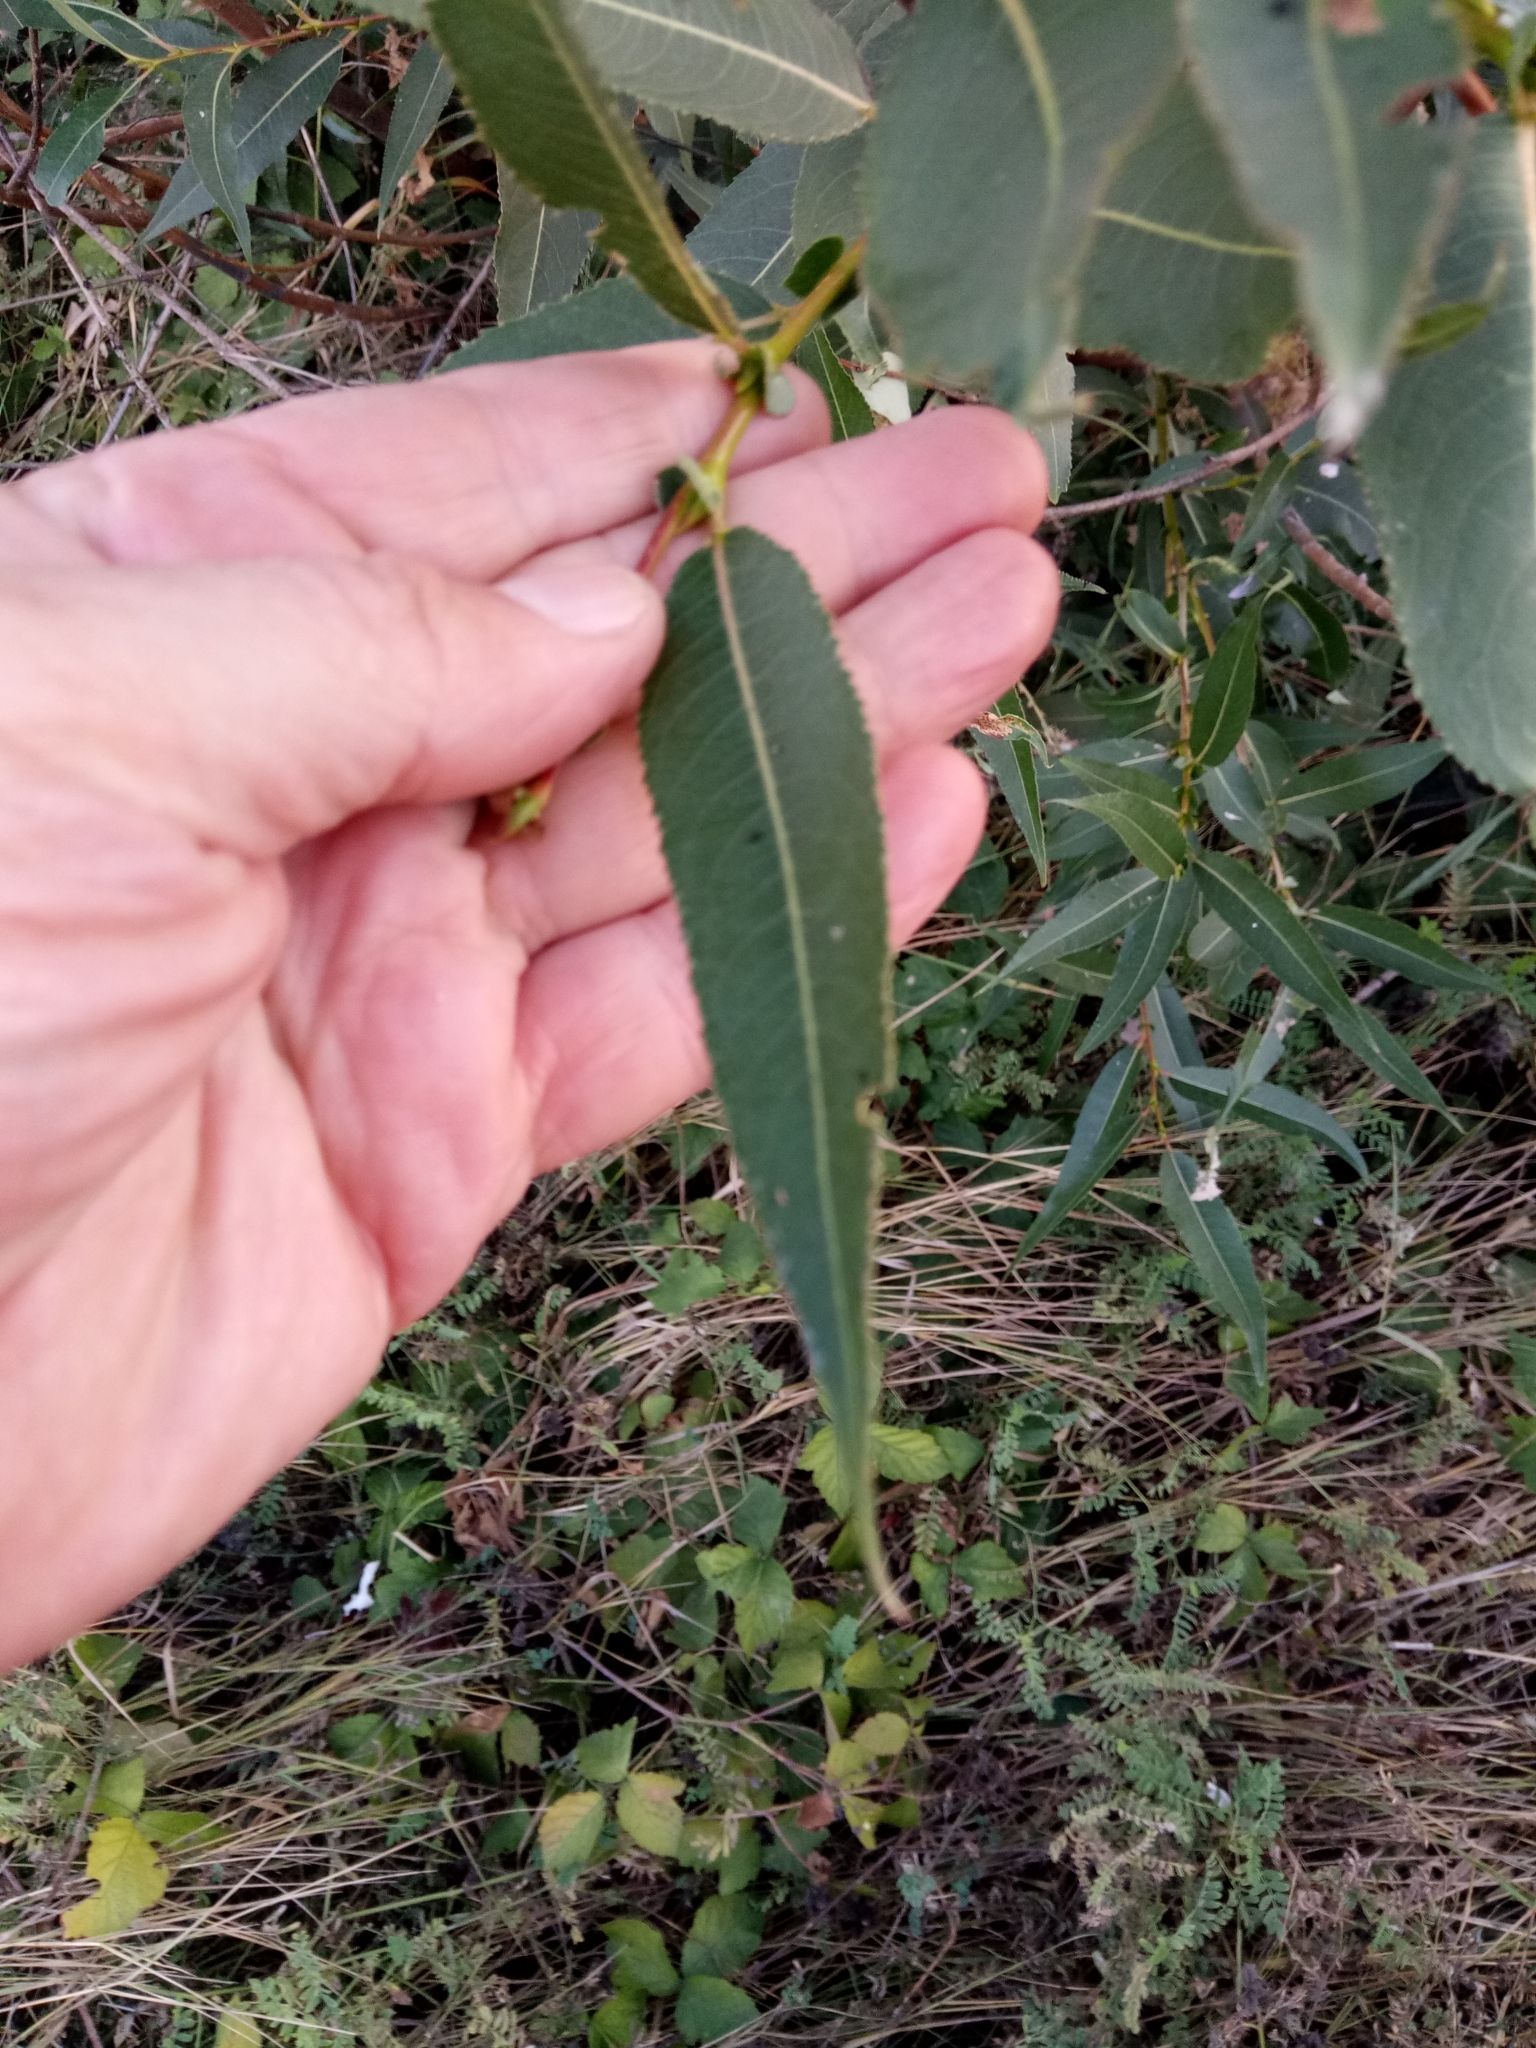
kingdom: Plantae
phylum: Tracheophyta
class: Magnoliopsida
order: Malpighiales
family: Salicaceae
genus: Salix
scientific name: Salix triandra
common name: Almond willow
